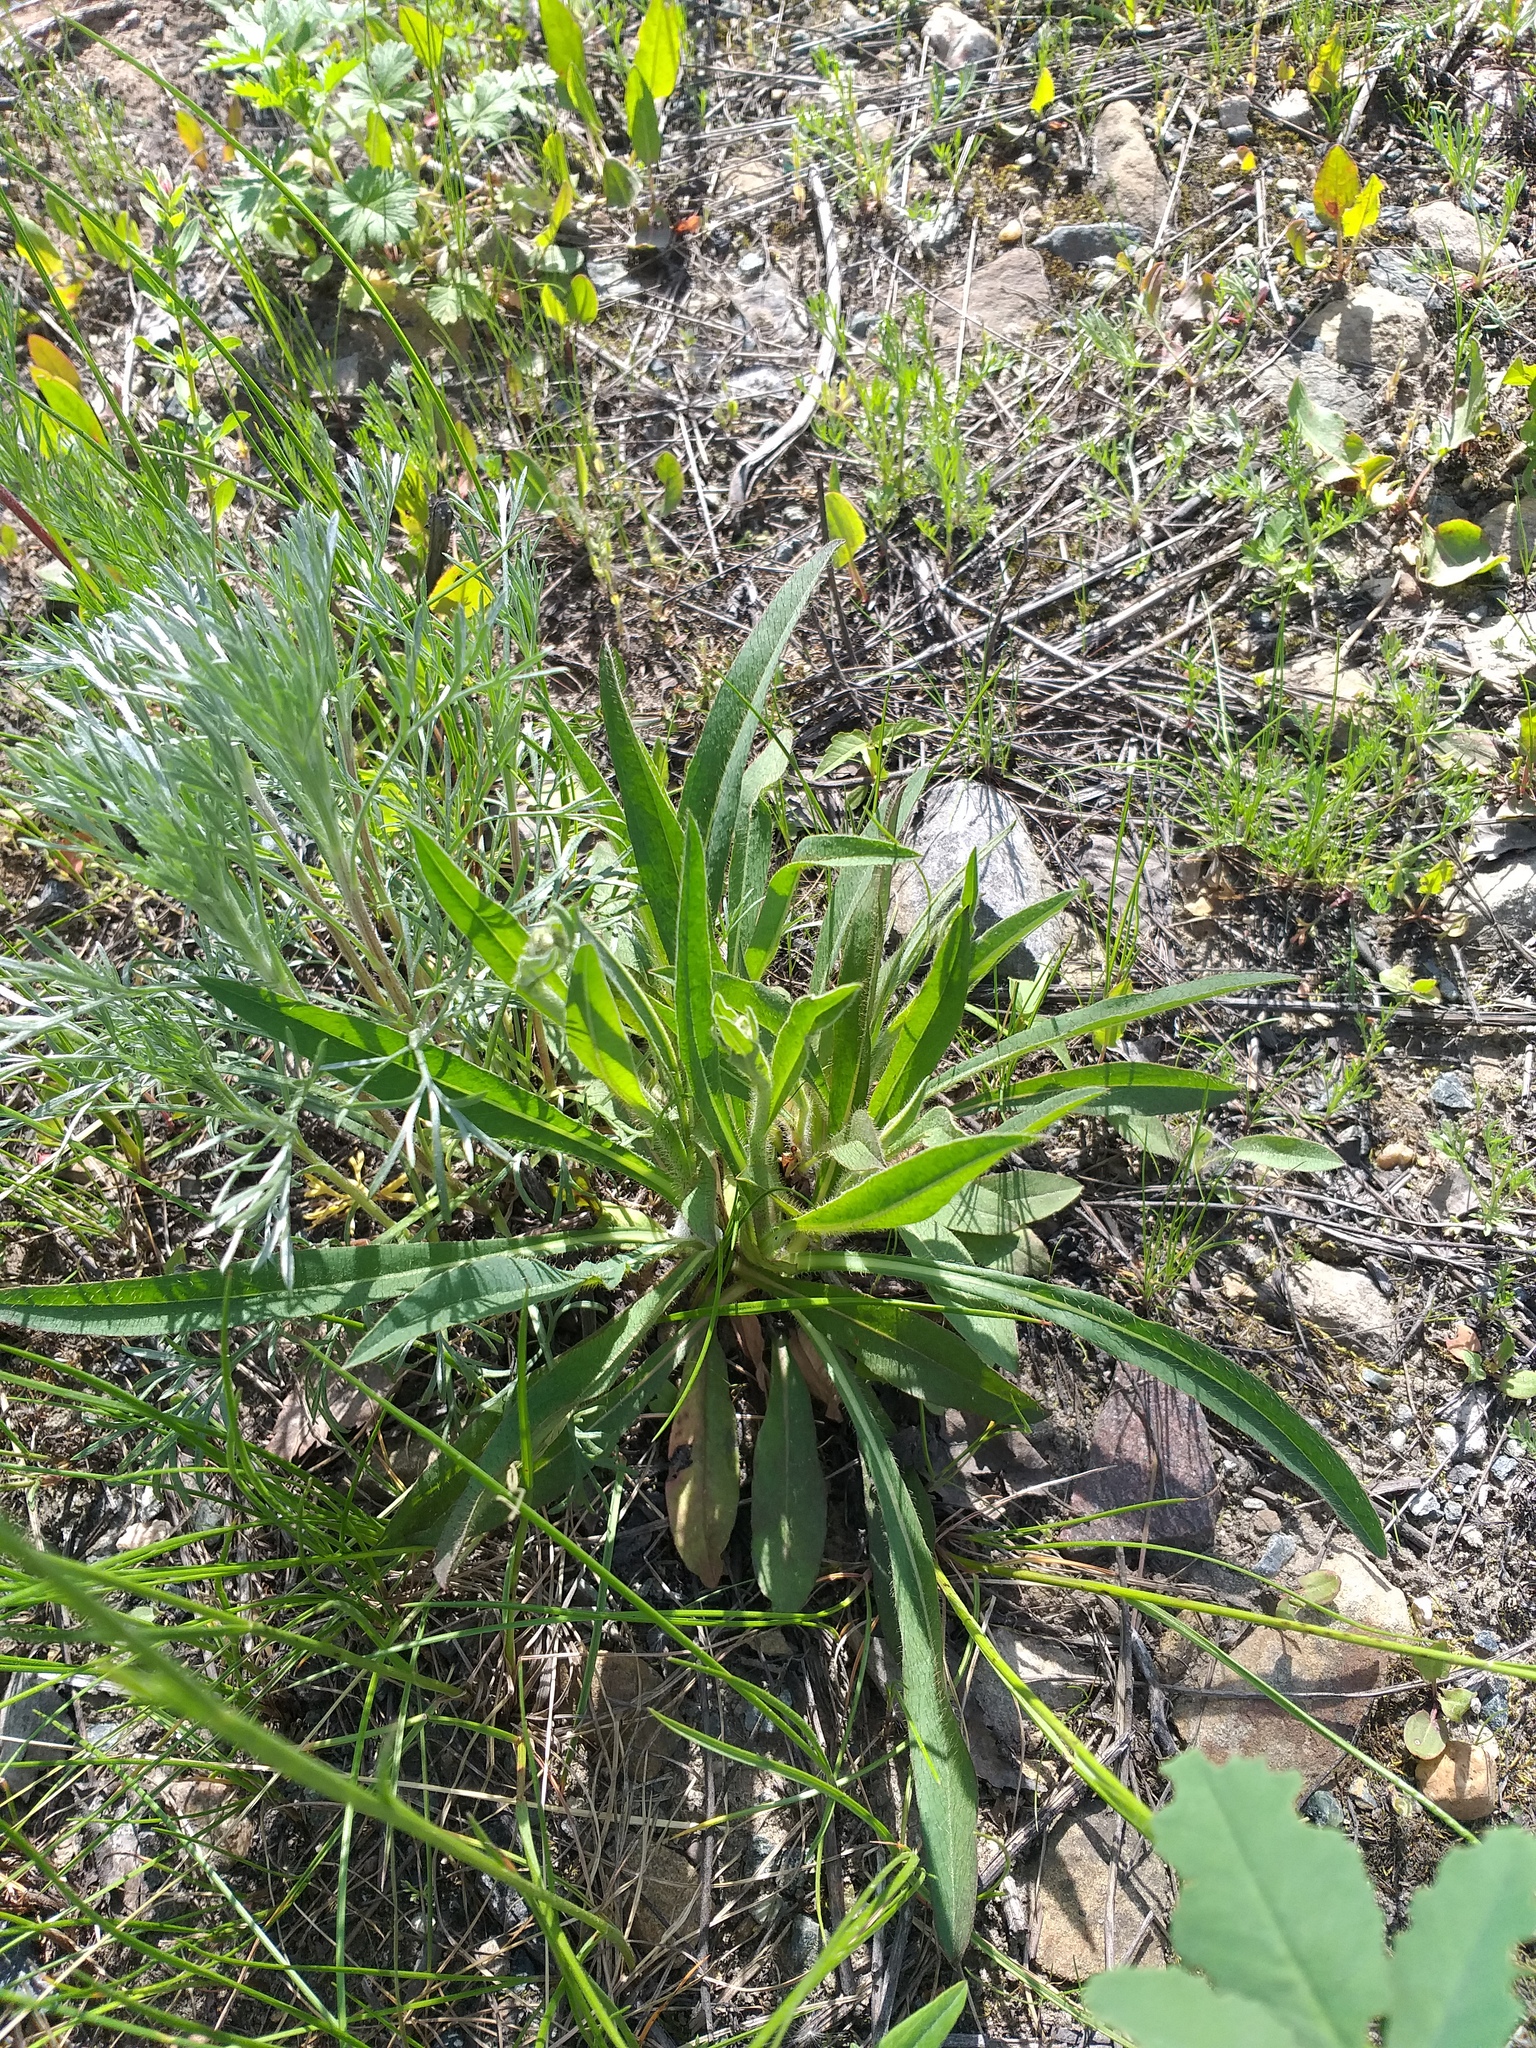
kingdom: Plantae
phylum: Tracheophyta
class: Magnoliopsida
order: Asterales
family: Asteraceae
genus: Pilosella
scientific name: Pilosella
